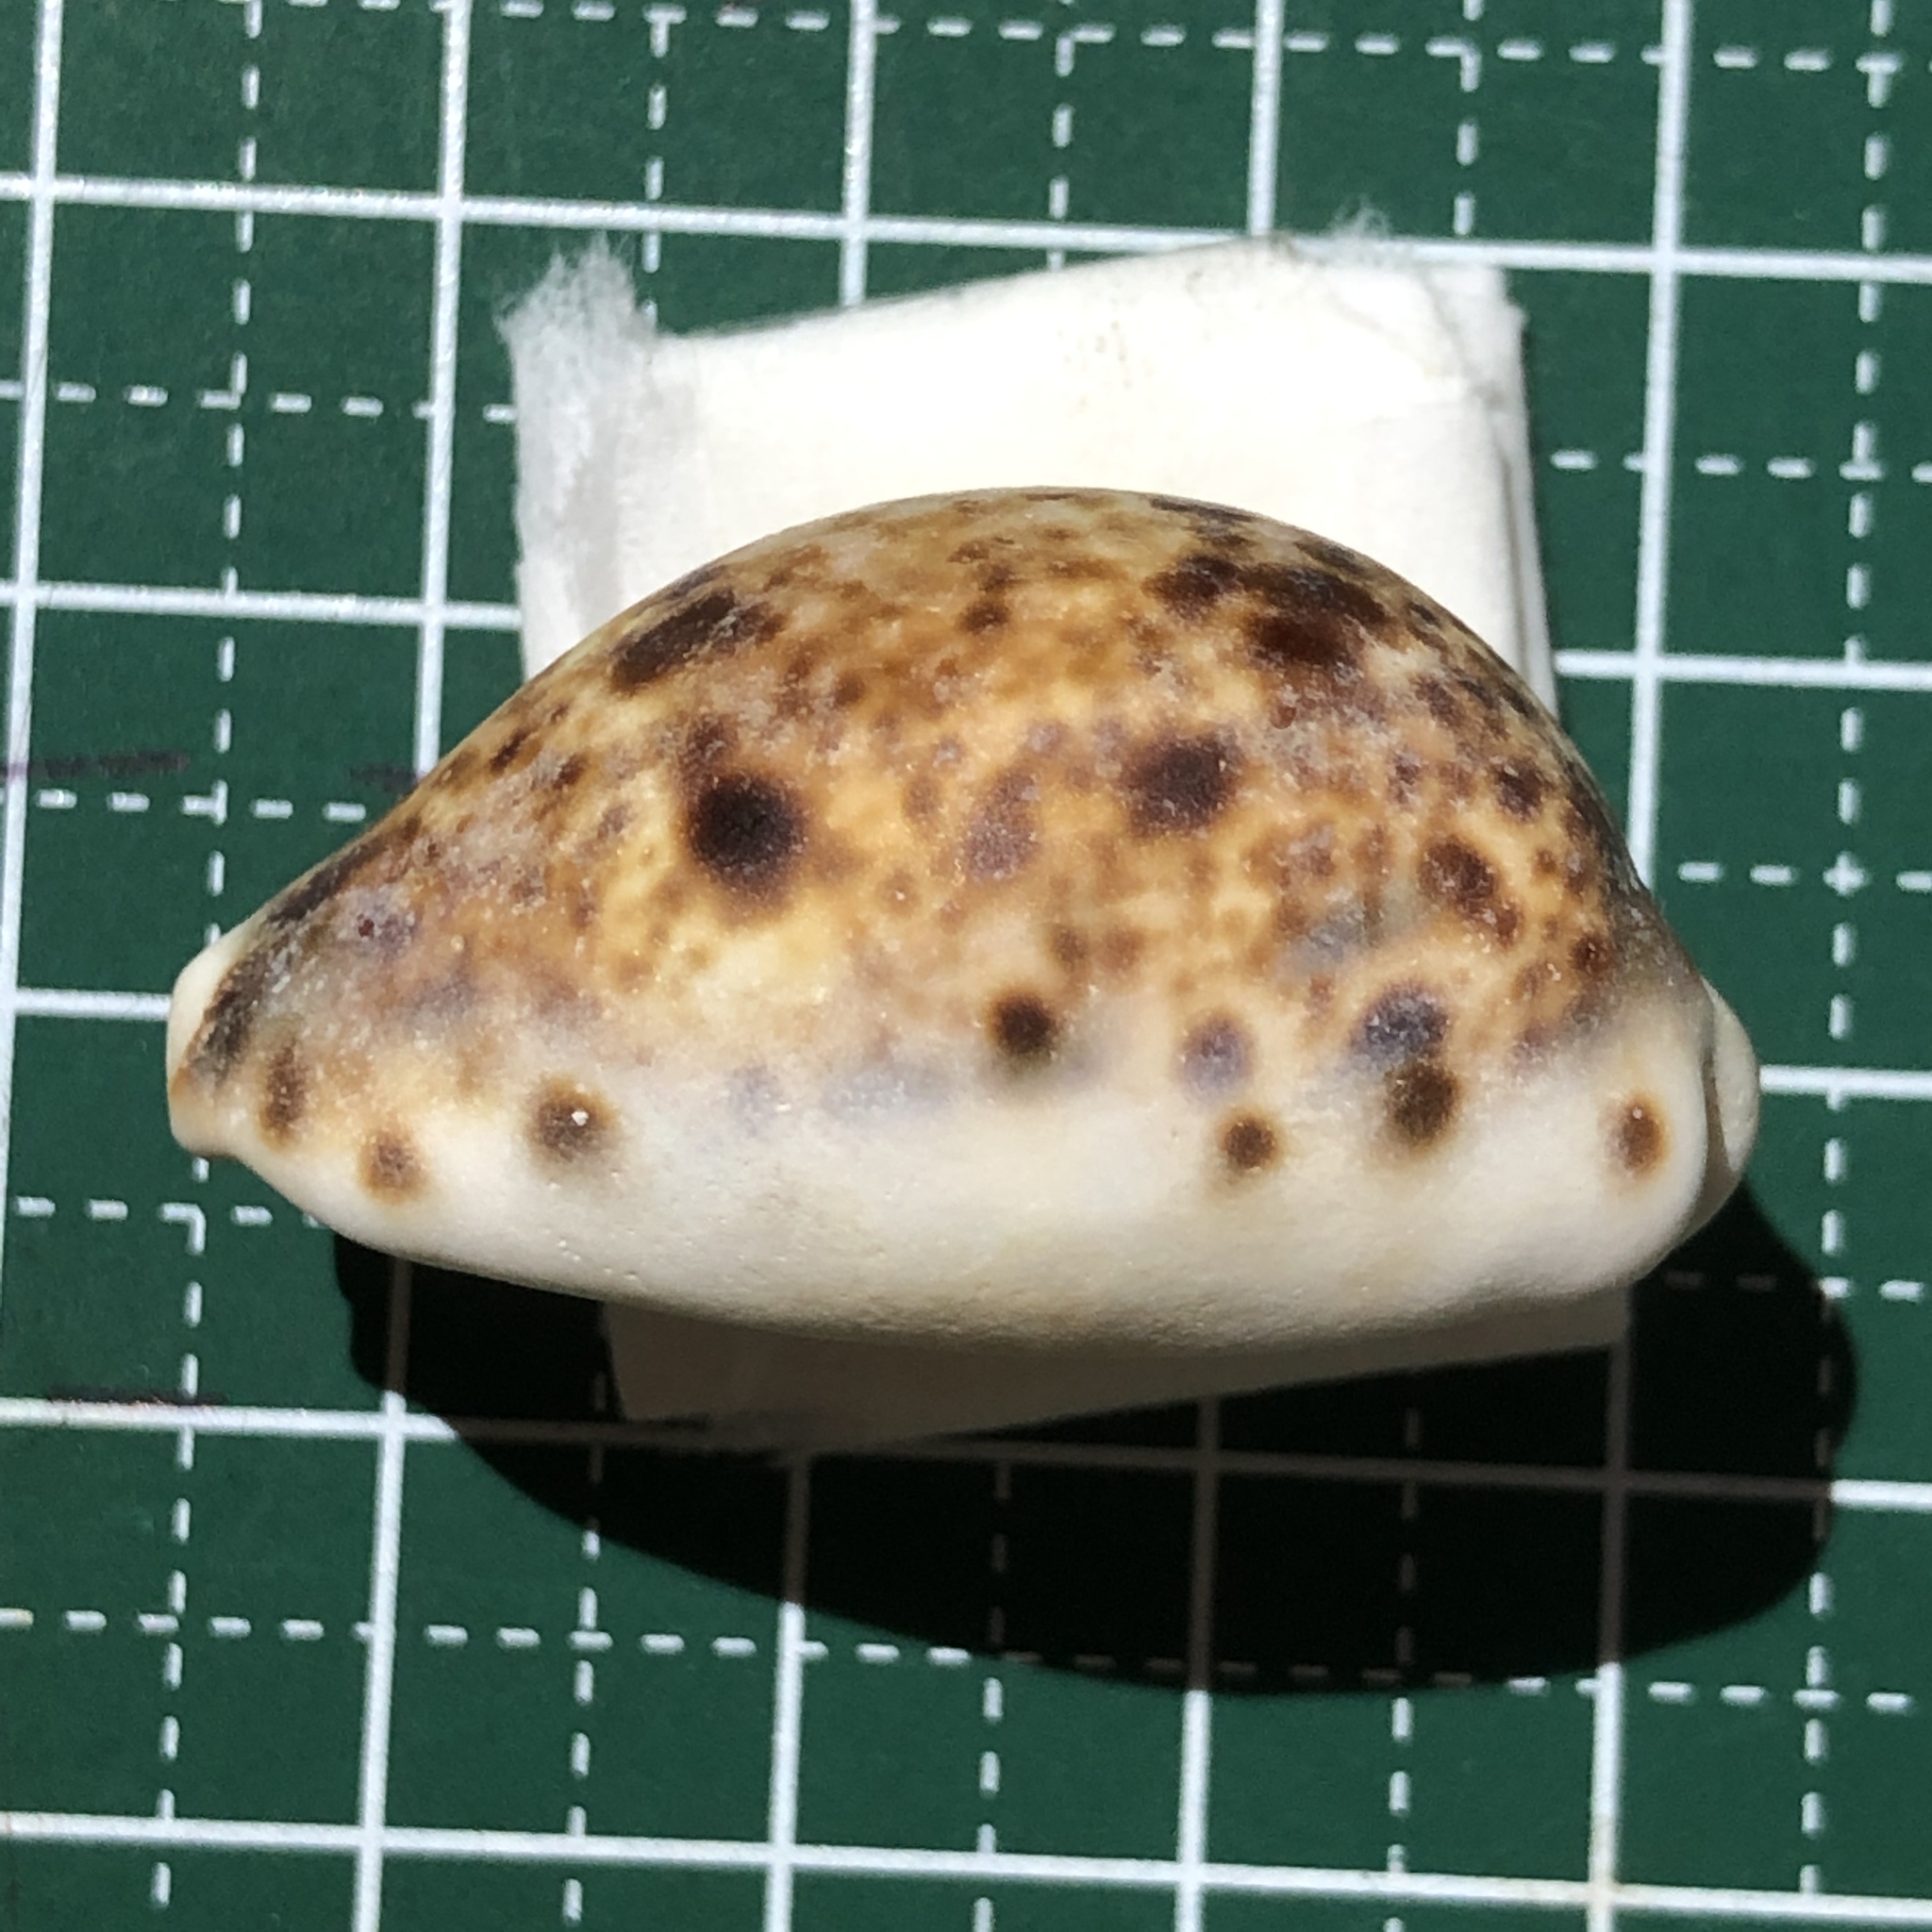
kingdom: Animalia
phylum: Mollusca
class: Gastropoda
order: Littorinimorpha
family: Cypraeidae
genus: Lyncina
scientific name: Lyncina lynx
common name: Bobcat cowrie
